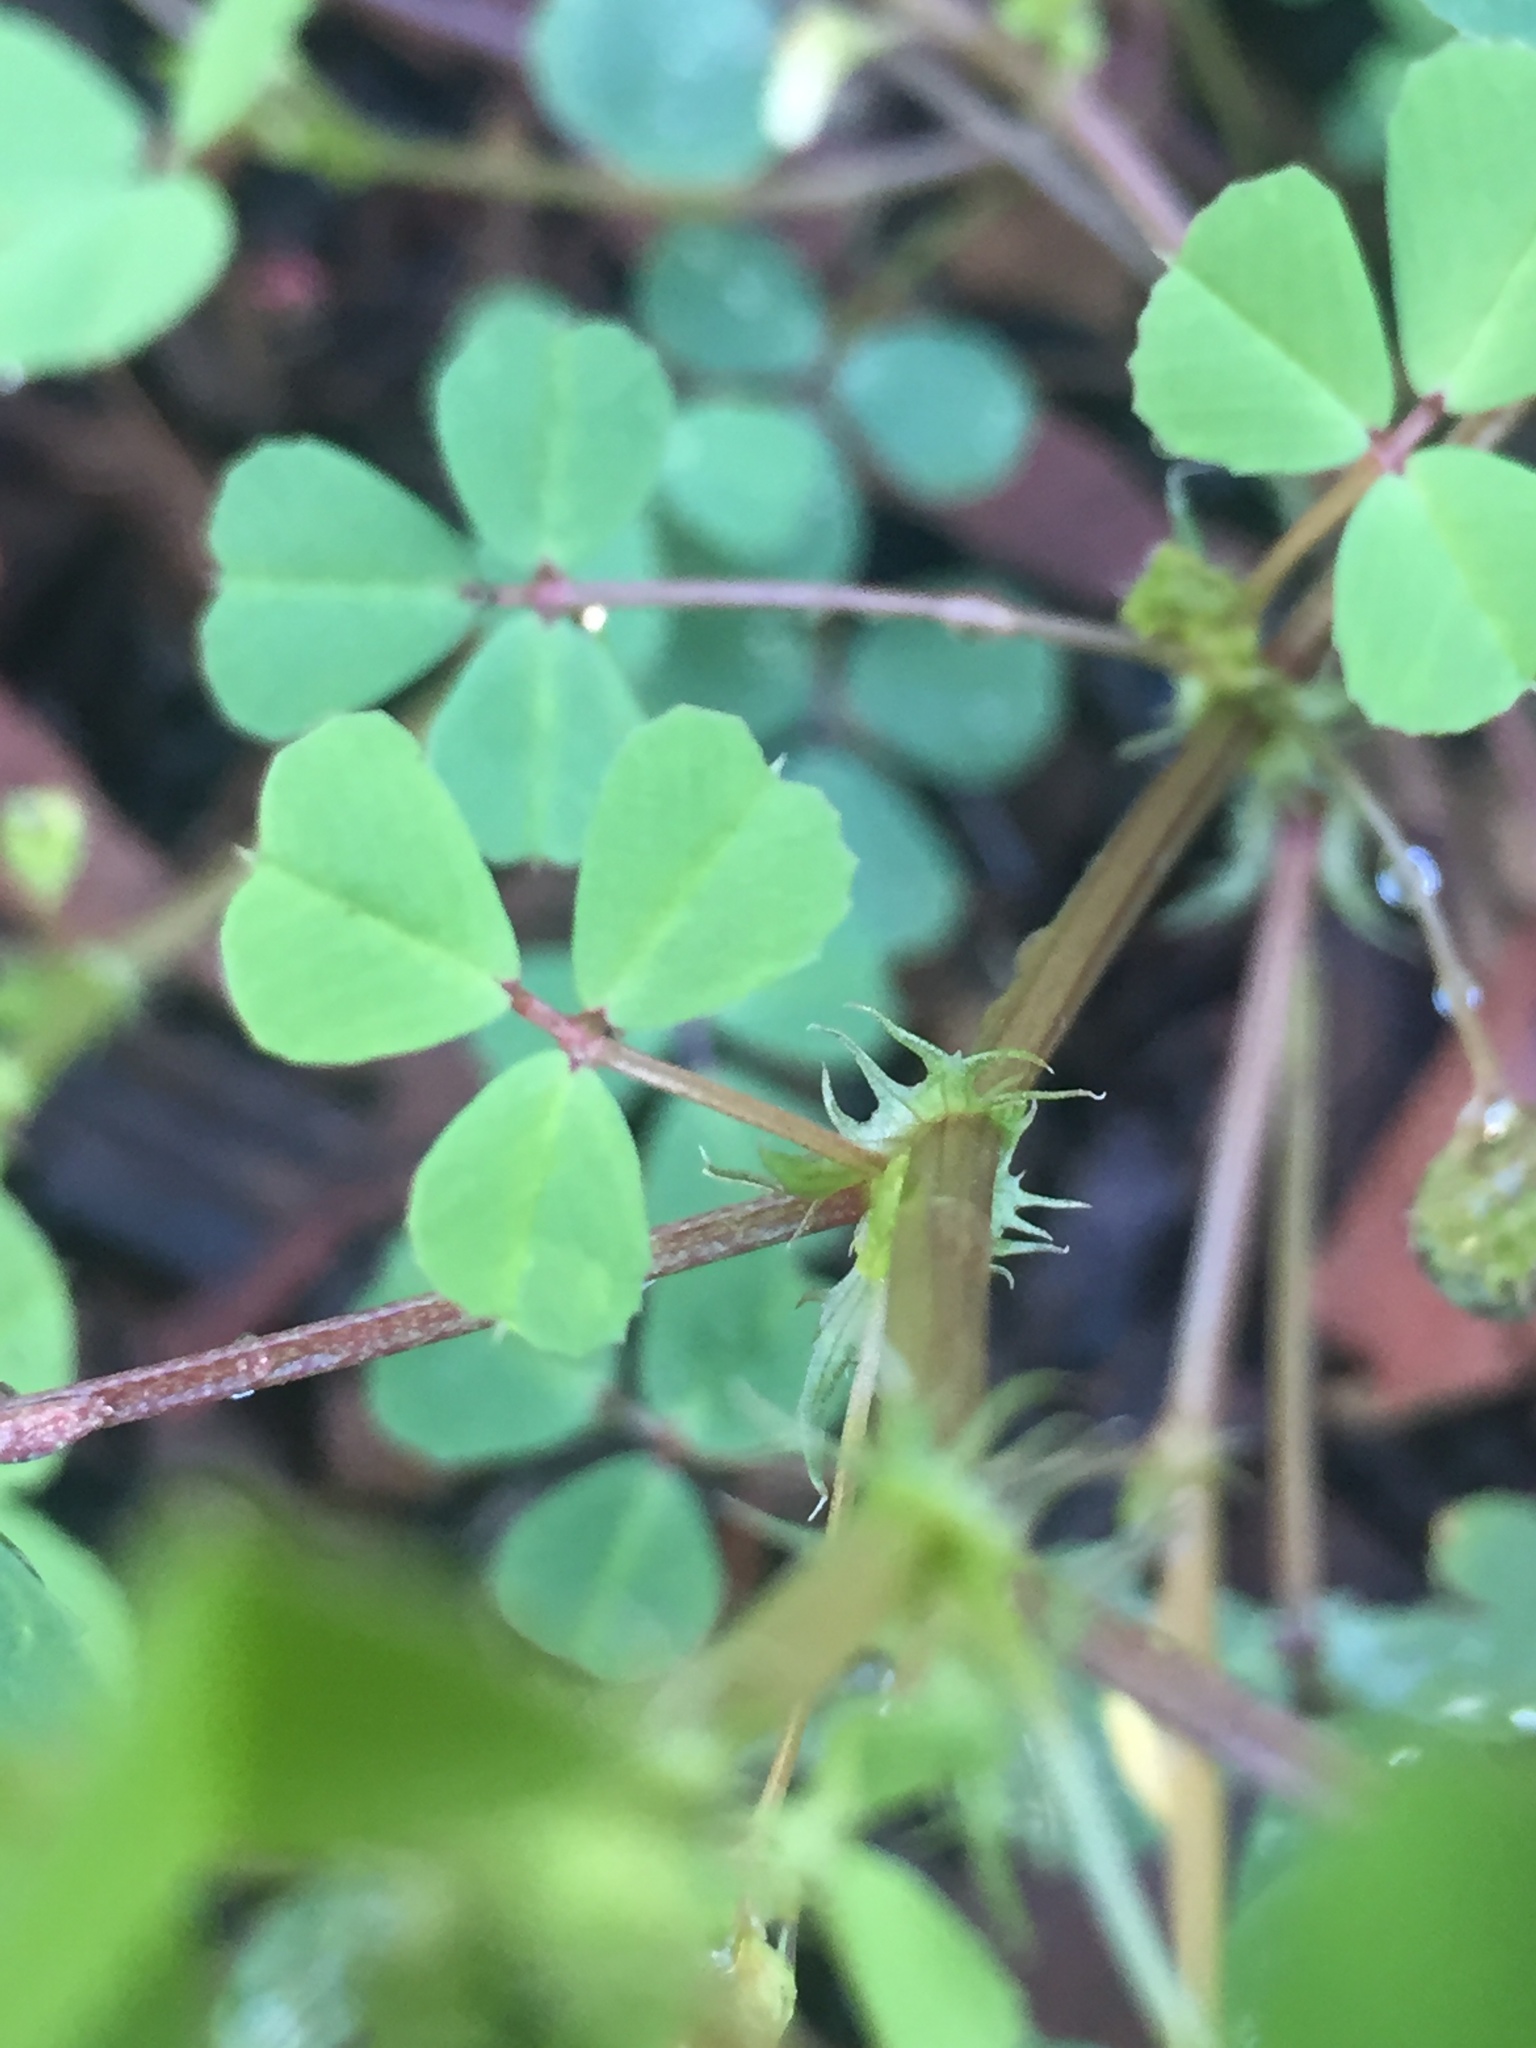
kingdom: Plantae
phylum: Tracheophyta
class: Magnoliopsida
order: Fabales
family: Fabaceae
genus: Medicago
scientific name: Medicago polymorpha
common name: Burclover
